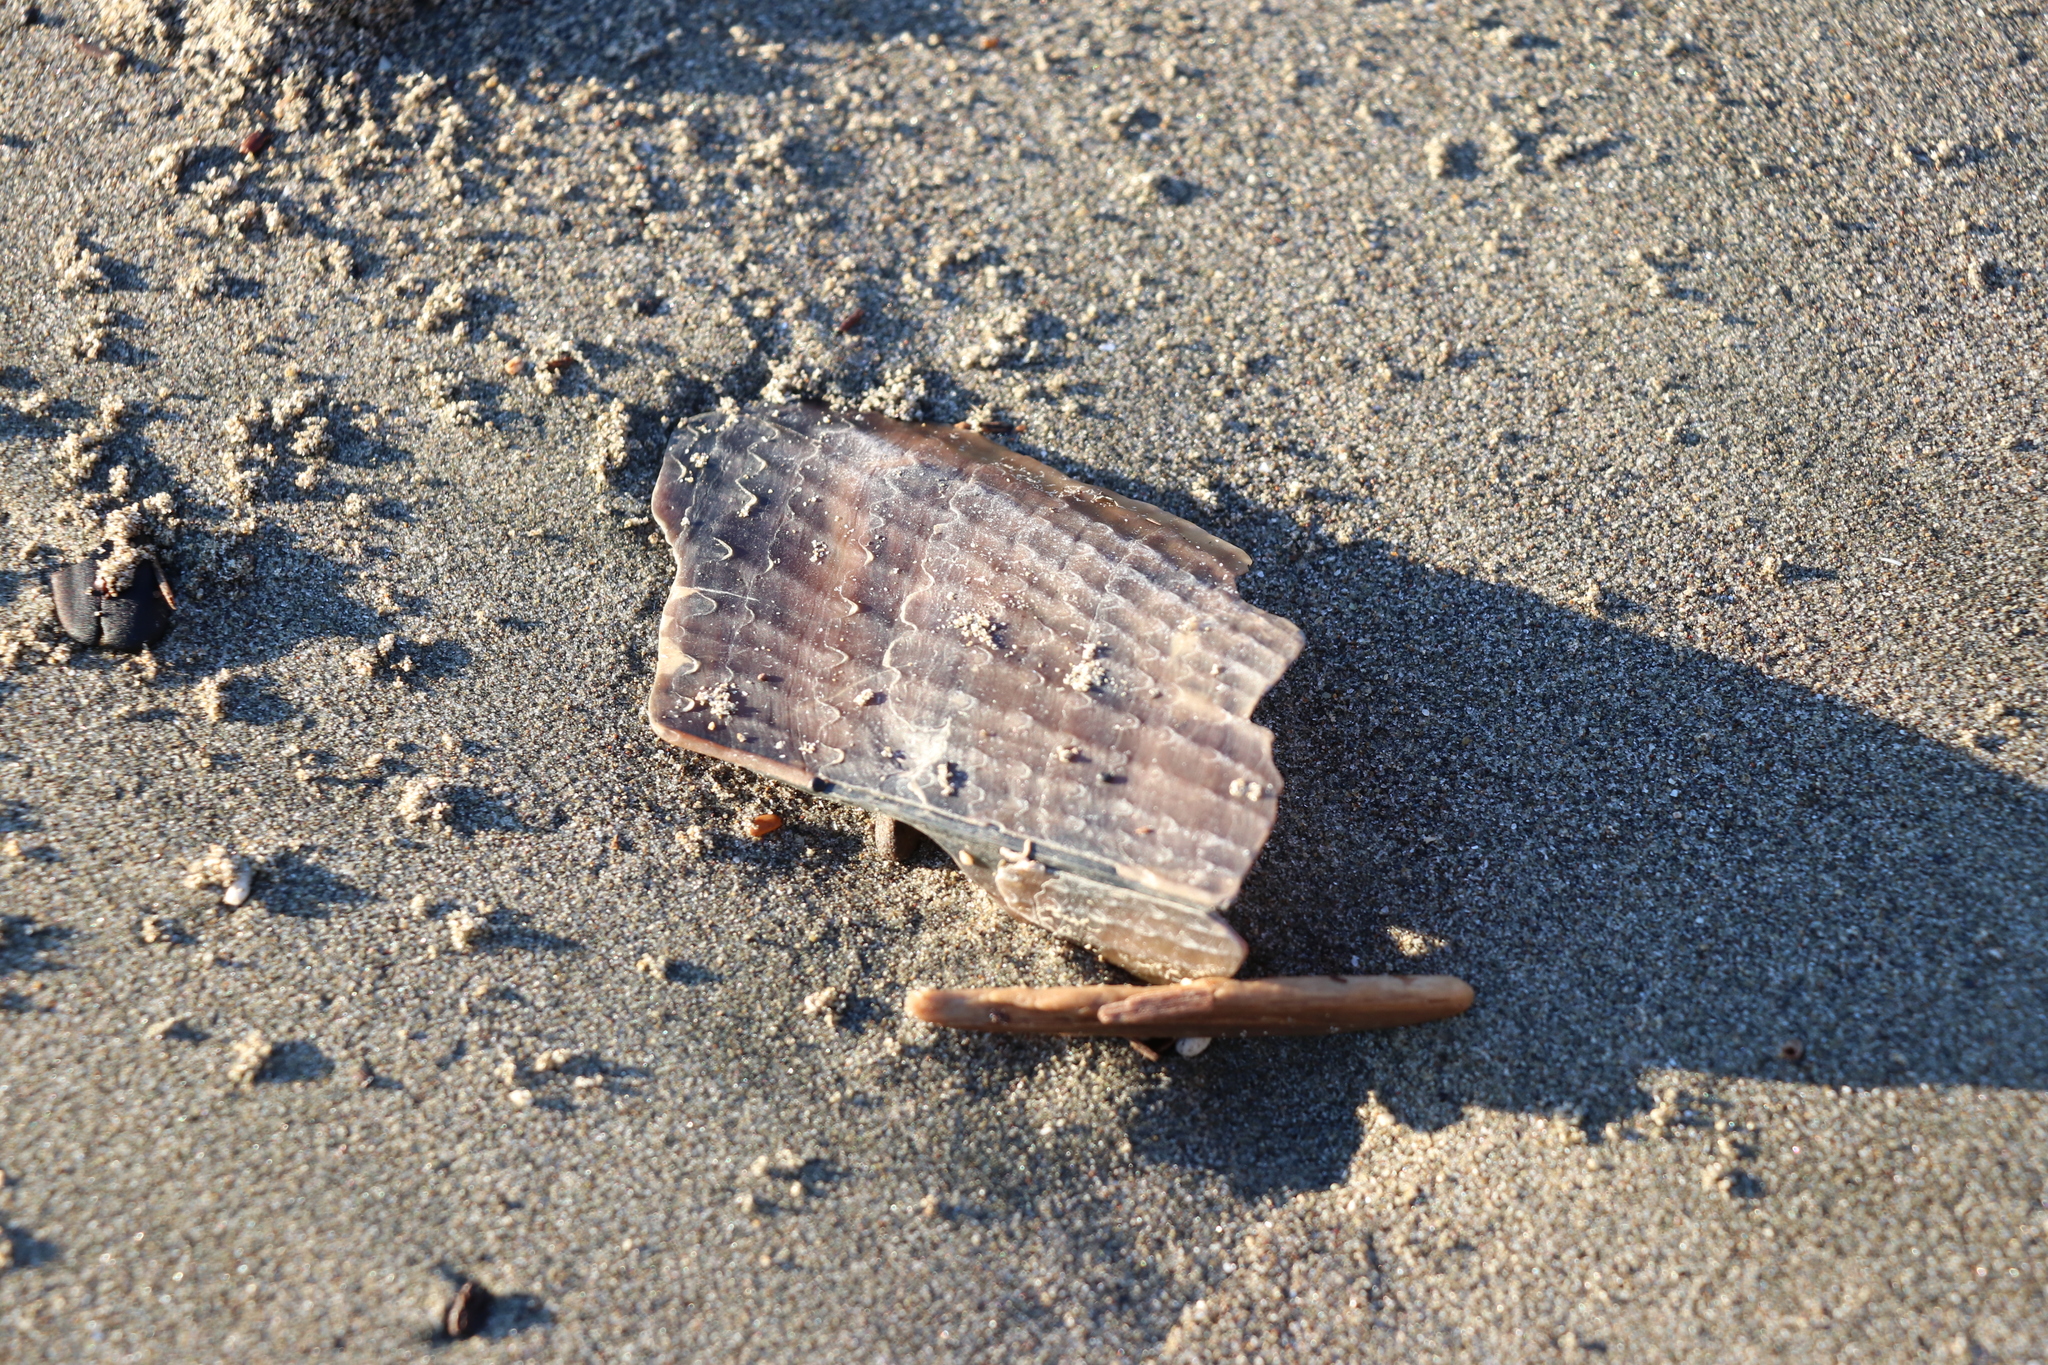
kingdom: Animalia
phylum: Mollusca
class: Bivalvia
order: Ostreida
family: Pinnidae
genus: Atrina
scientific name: Atrina zelandica
